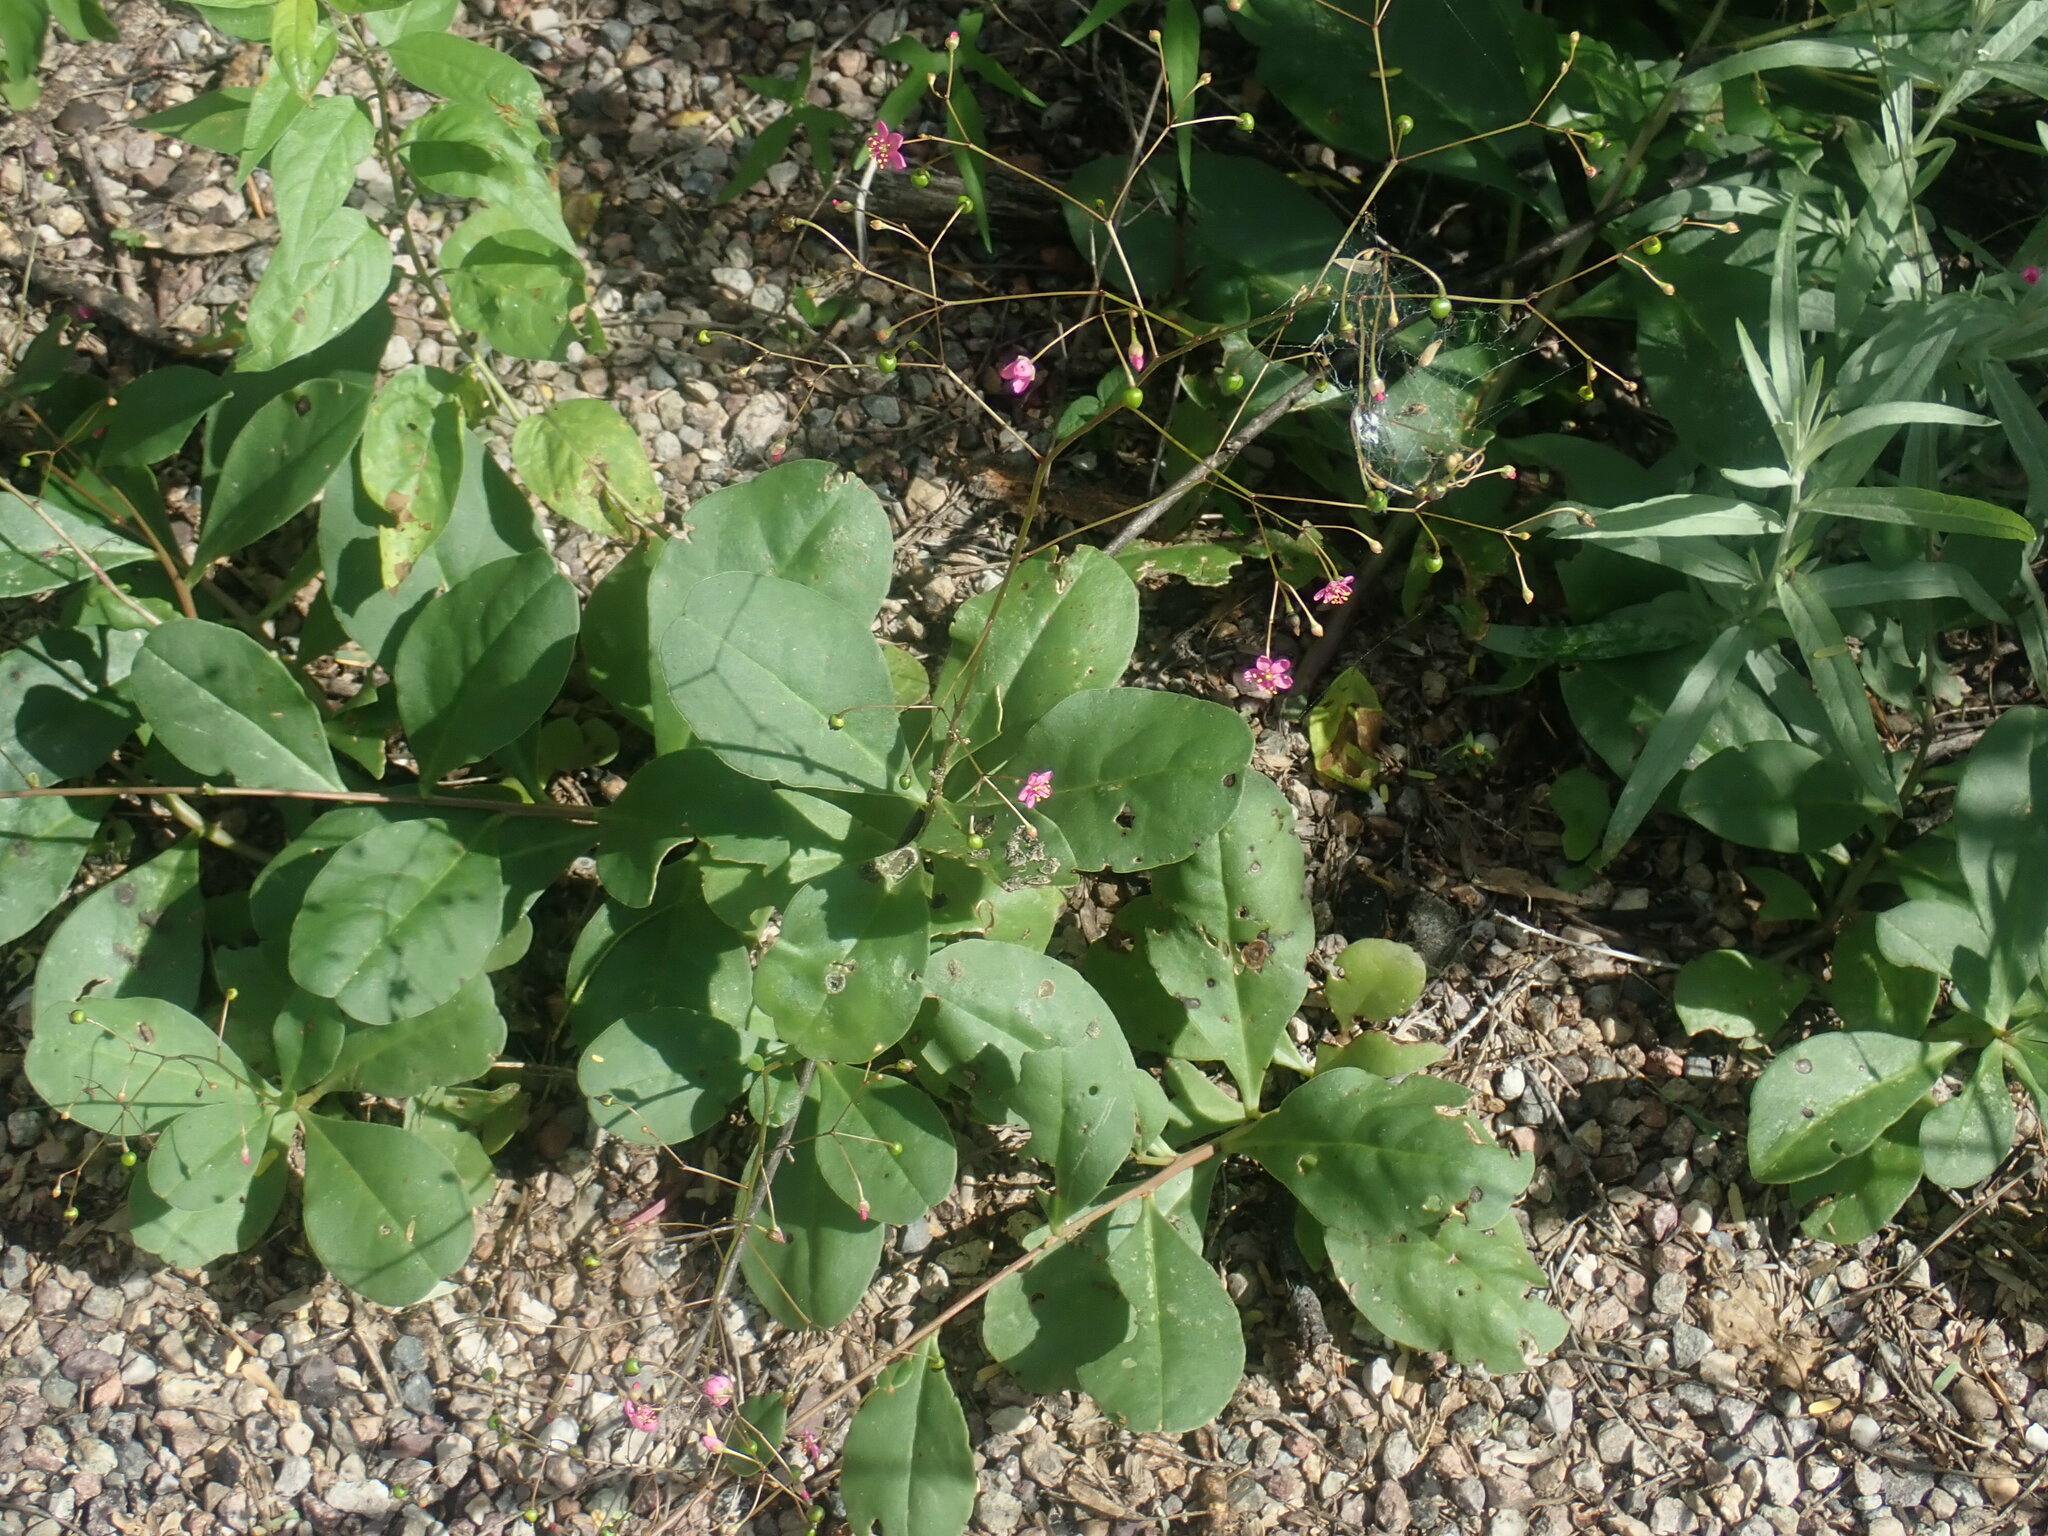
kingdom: Plantae
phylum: Tracheophyta
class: Magnoliopsida
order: Caryophyllales
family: Talinaceae
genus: Talinum
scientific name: Talinum paniculatum
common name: Jewels of opar
